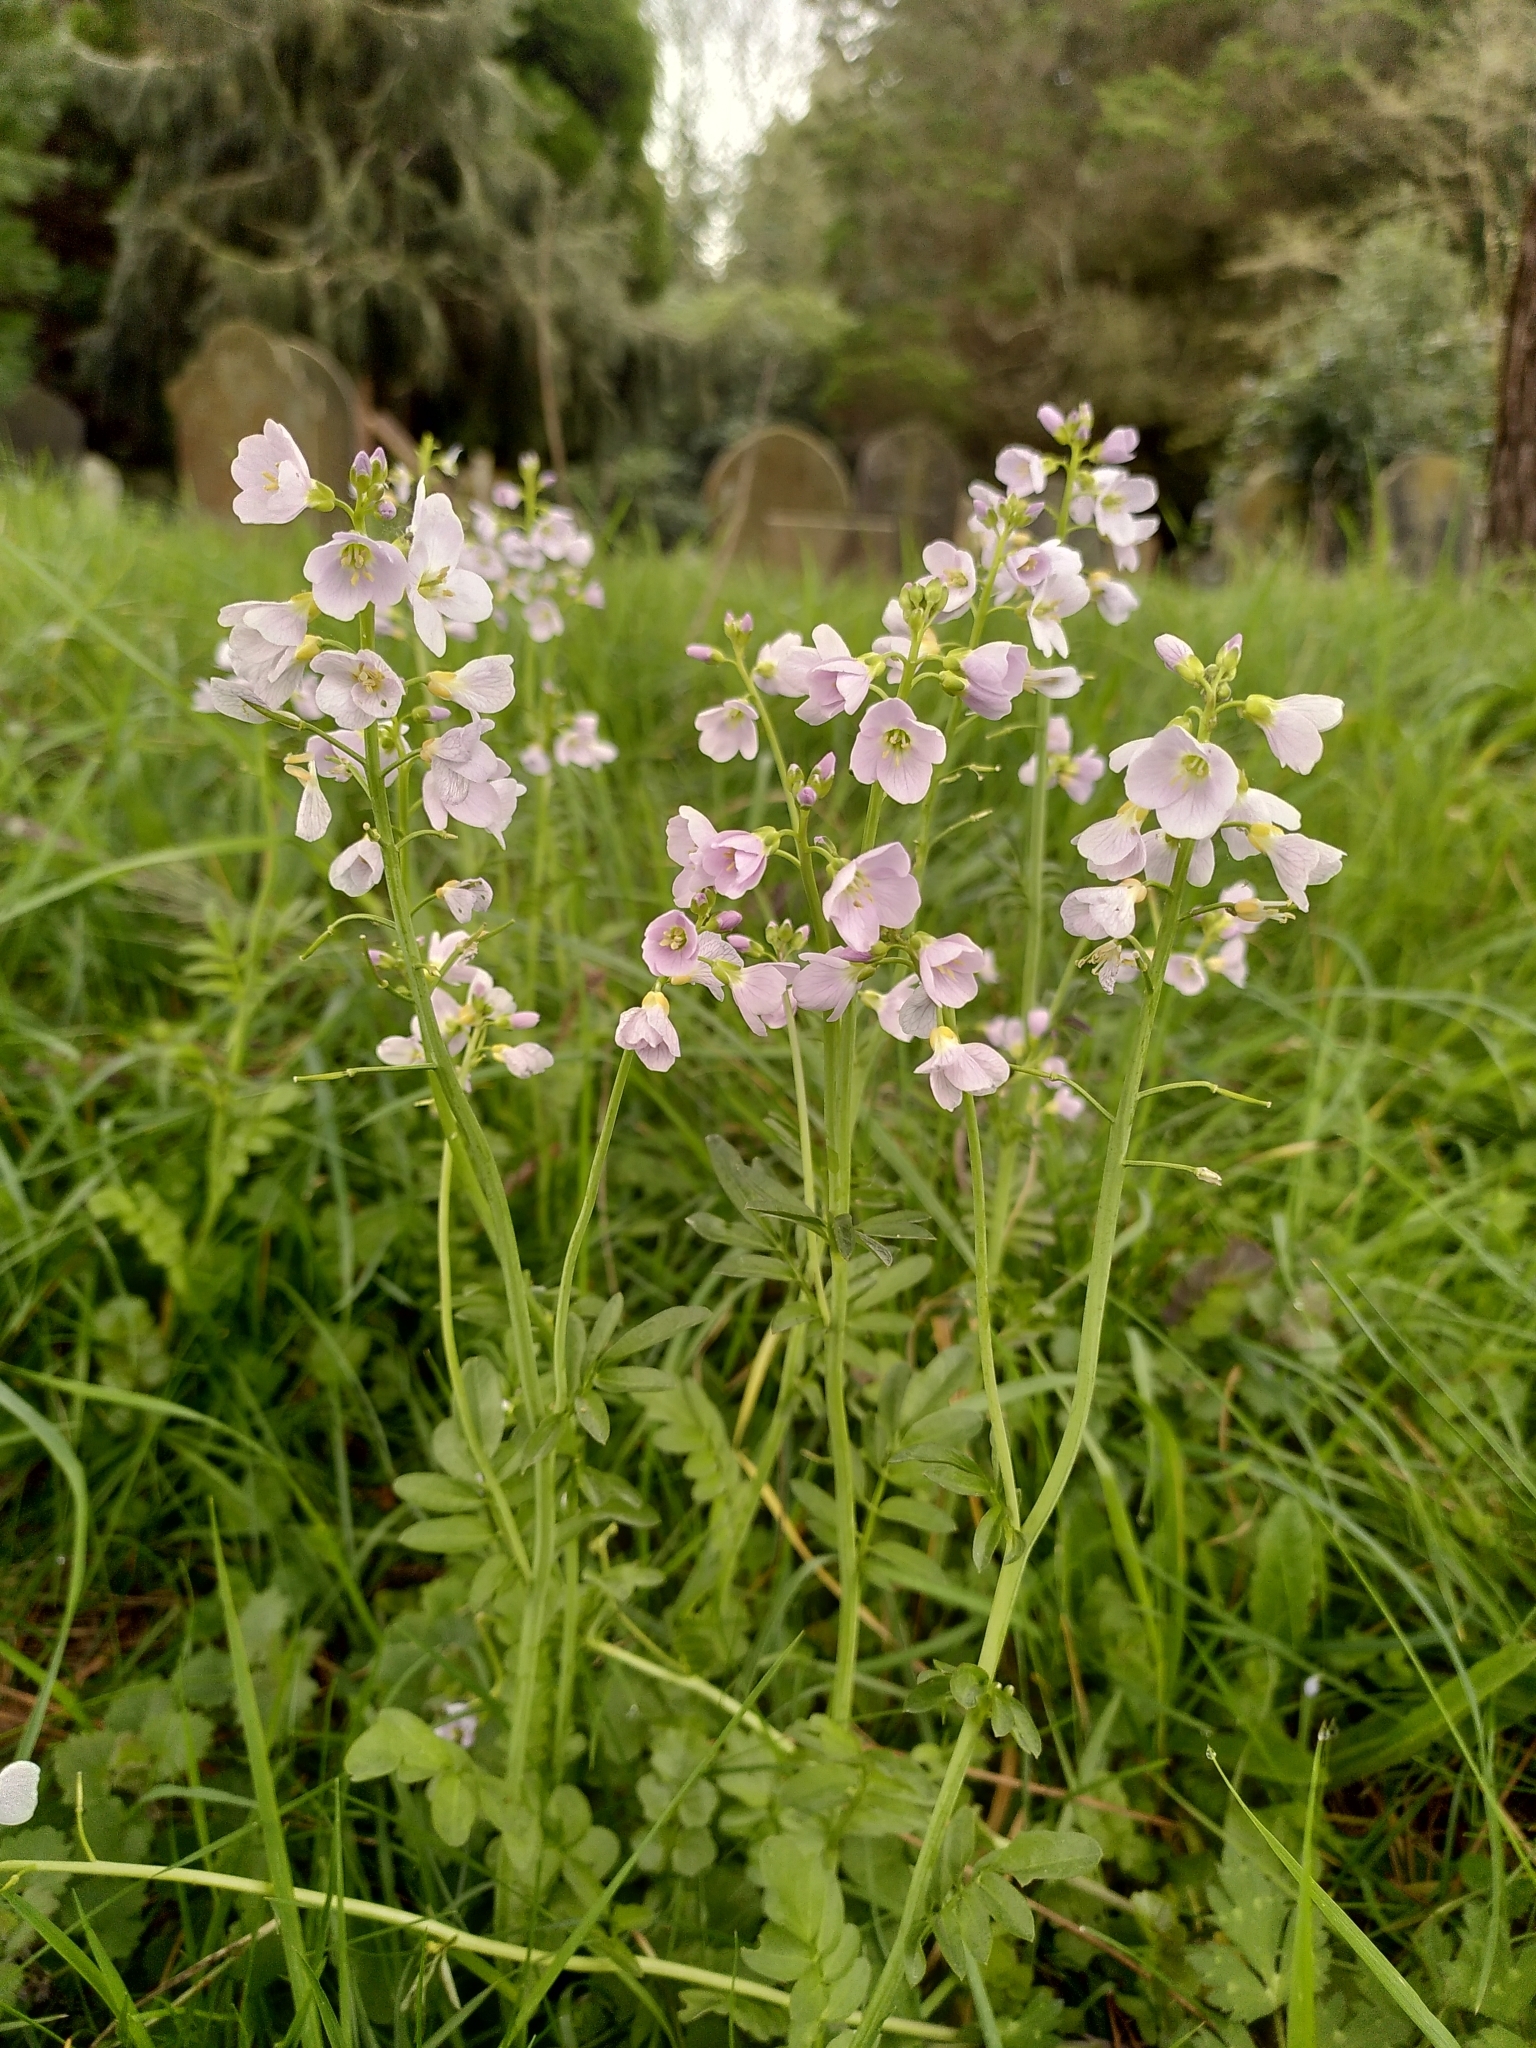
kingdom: Plantae
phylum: Tracheophyta
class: Magnoliopsida
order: Brassicales
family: Brassicaceae
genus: Cardamine
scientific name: Cardamine pratensis
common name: Cuckoo flower
